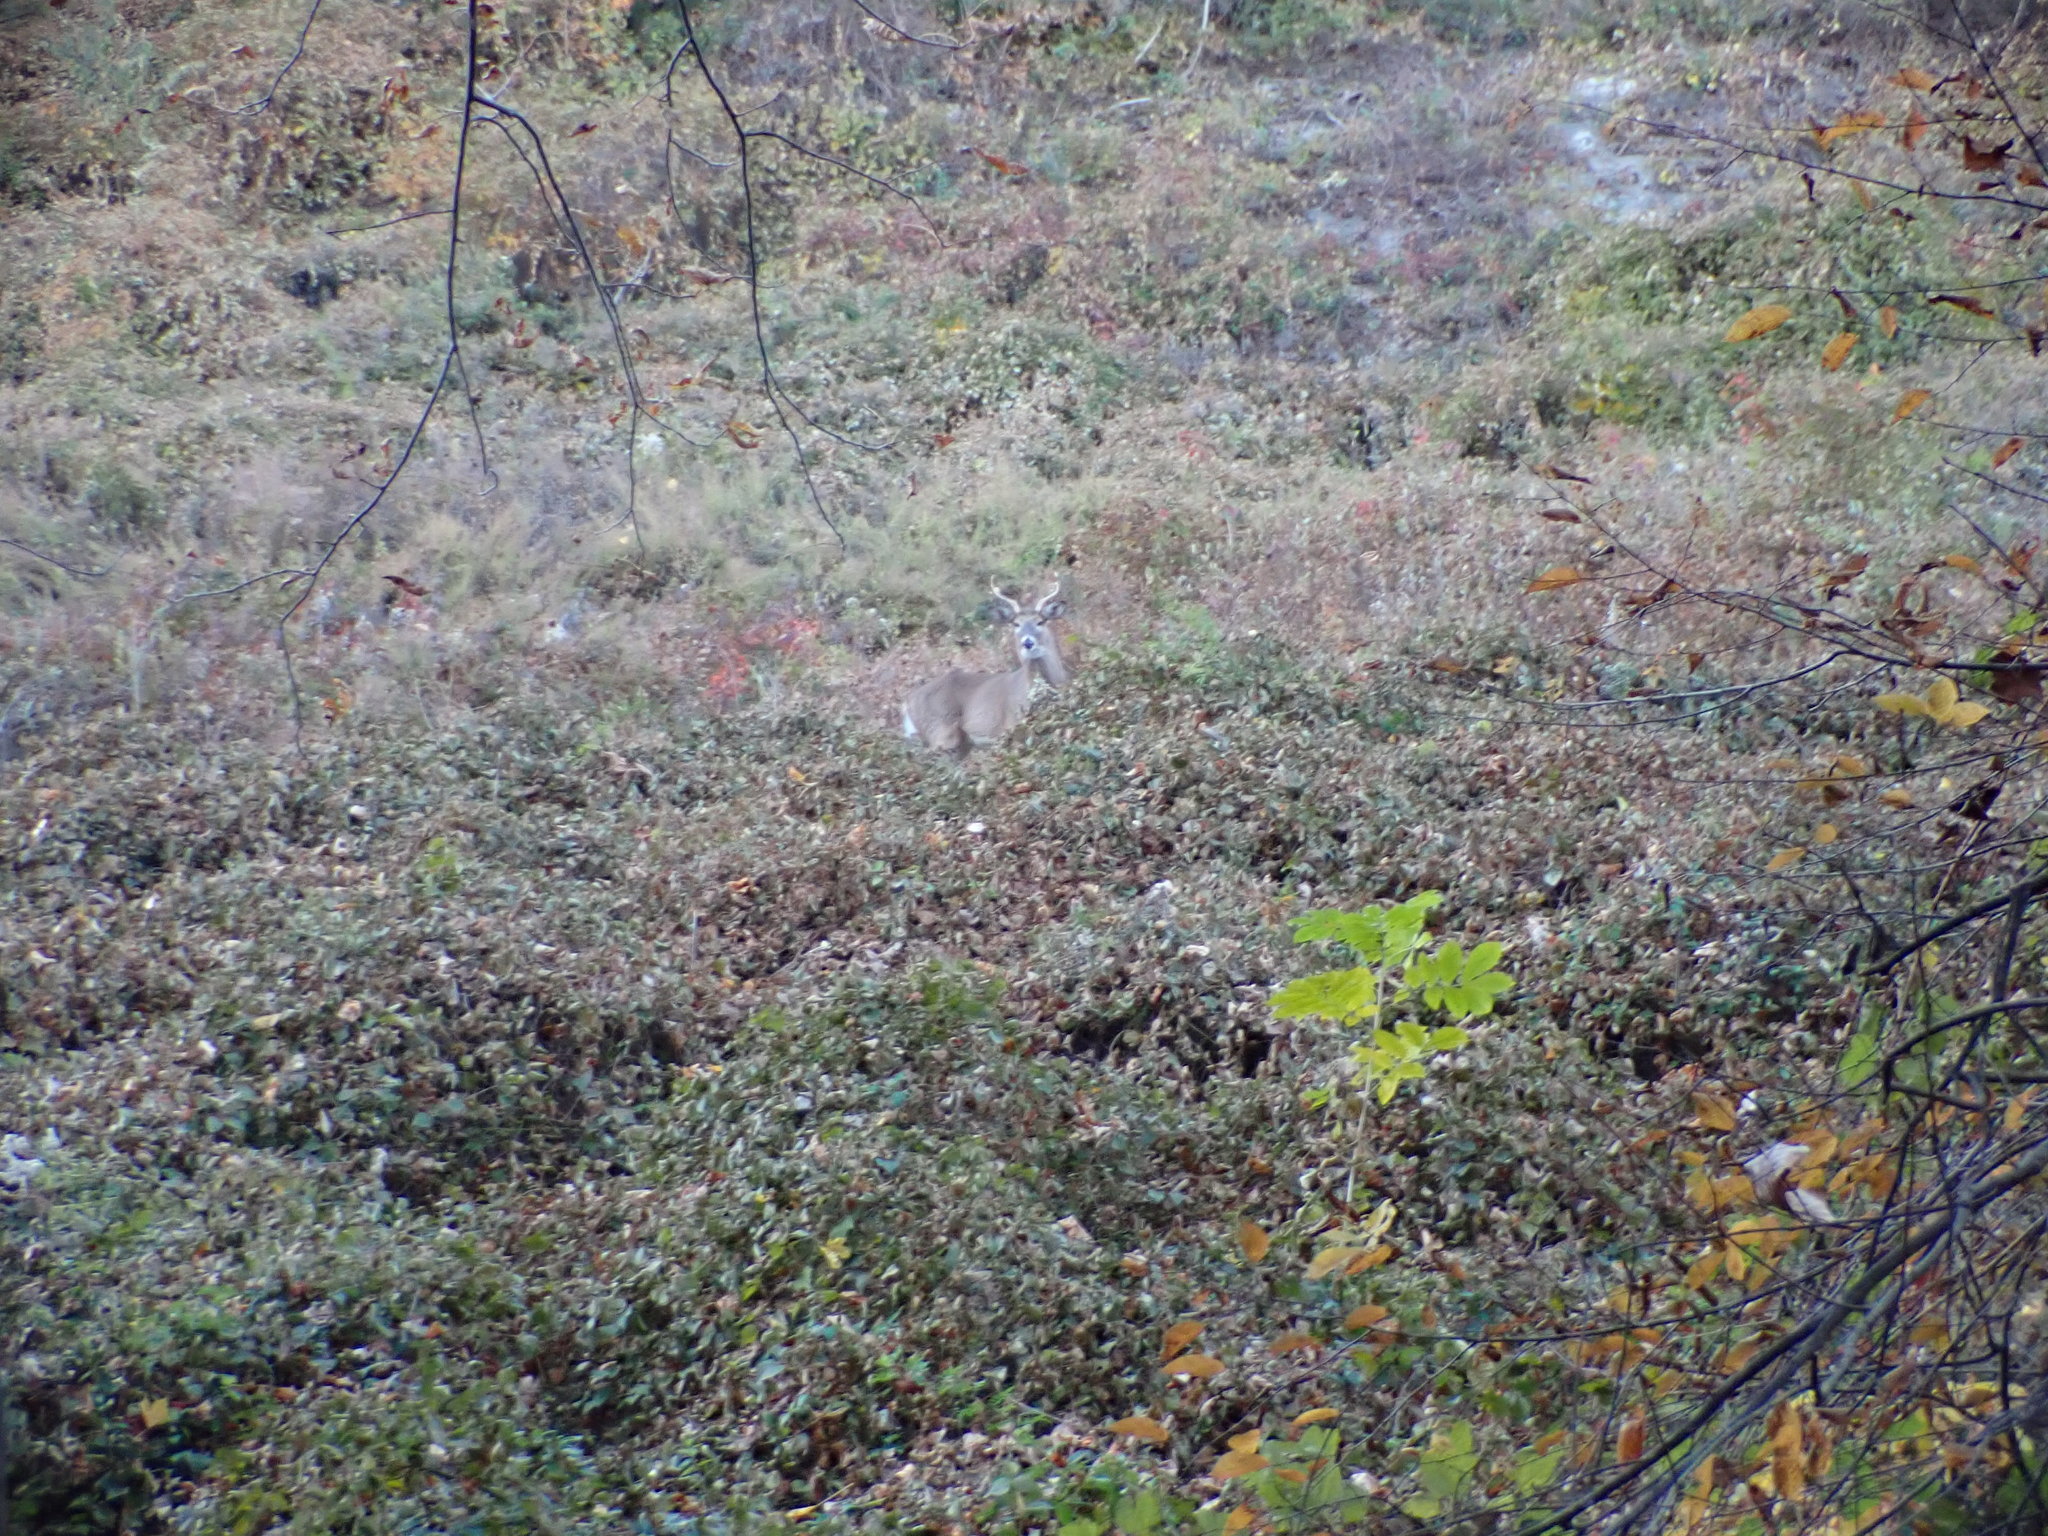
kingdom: Animalia
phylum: Chordata
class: Mammalia
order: Artiodactyla
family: Cervidae
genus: Odocoileus
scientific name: Odocoileus virginianus
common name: White-tailed deer
